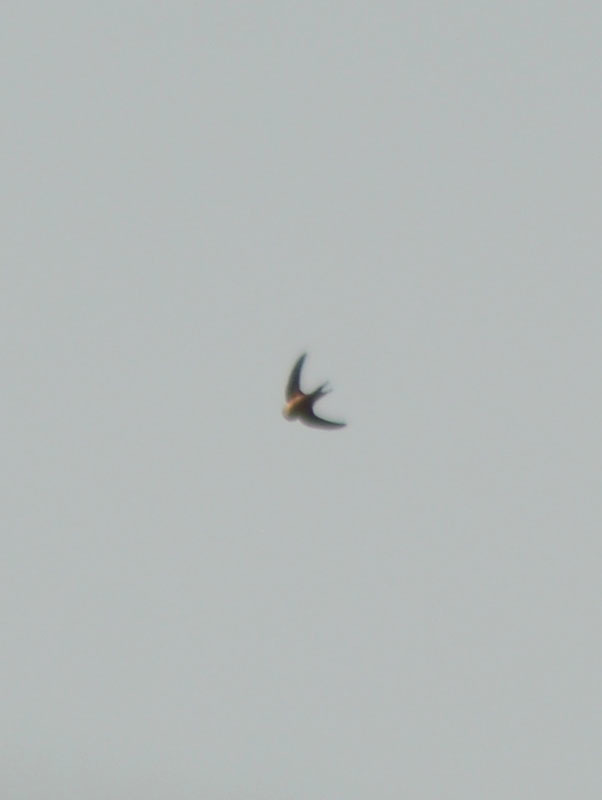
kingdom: Animalia
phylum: Chordata
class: Aves
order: Passeriformes
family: Hirundinidae
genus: Hirundo
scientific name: Hirundo rustica
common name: Barn swallow
